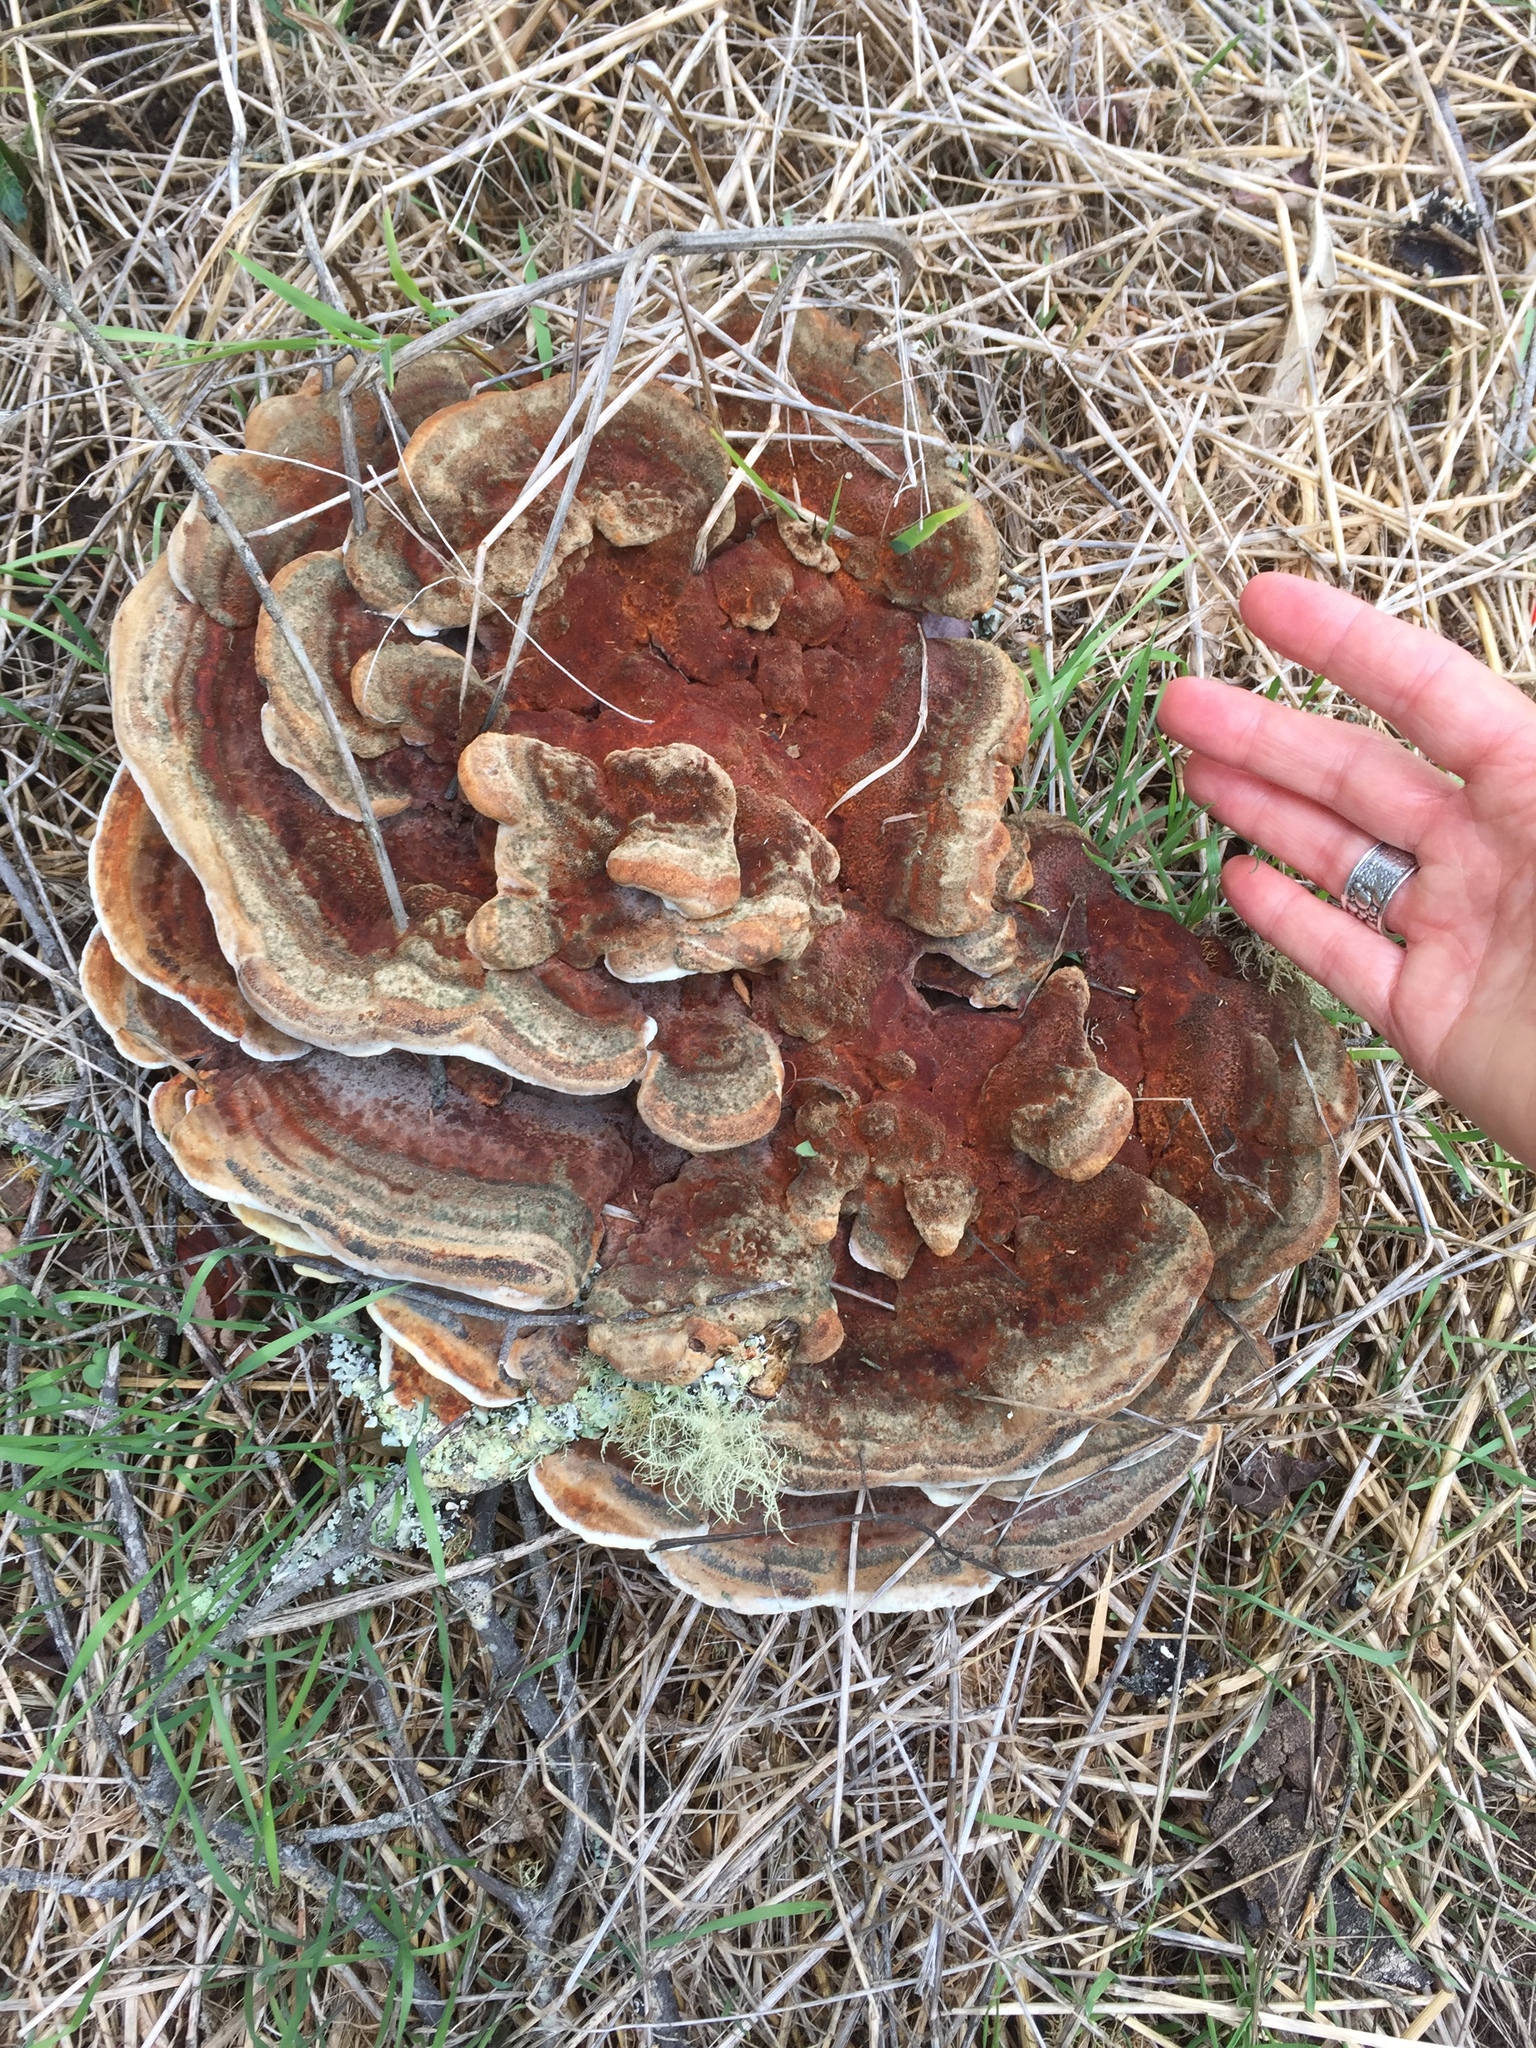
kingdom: Fungi
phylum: Basidiomycota
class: Agaricomycetes
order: Polyporales
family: Laetiporaceae
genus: Phaeolus
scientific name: Phaeolus schweinitzii
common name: Dyer's mazegill
